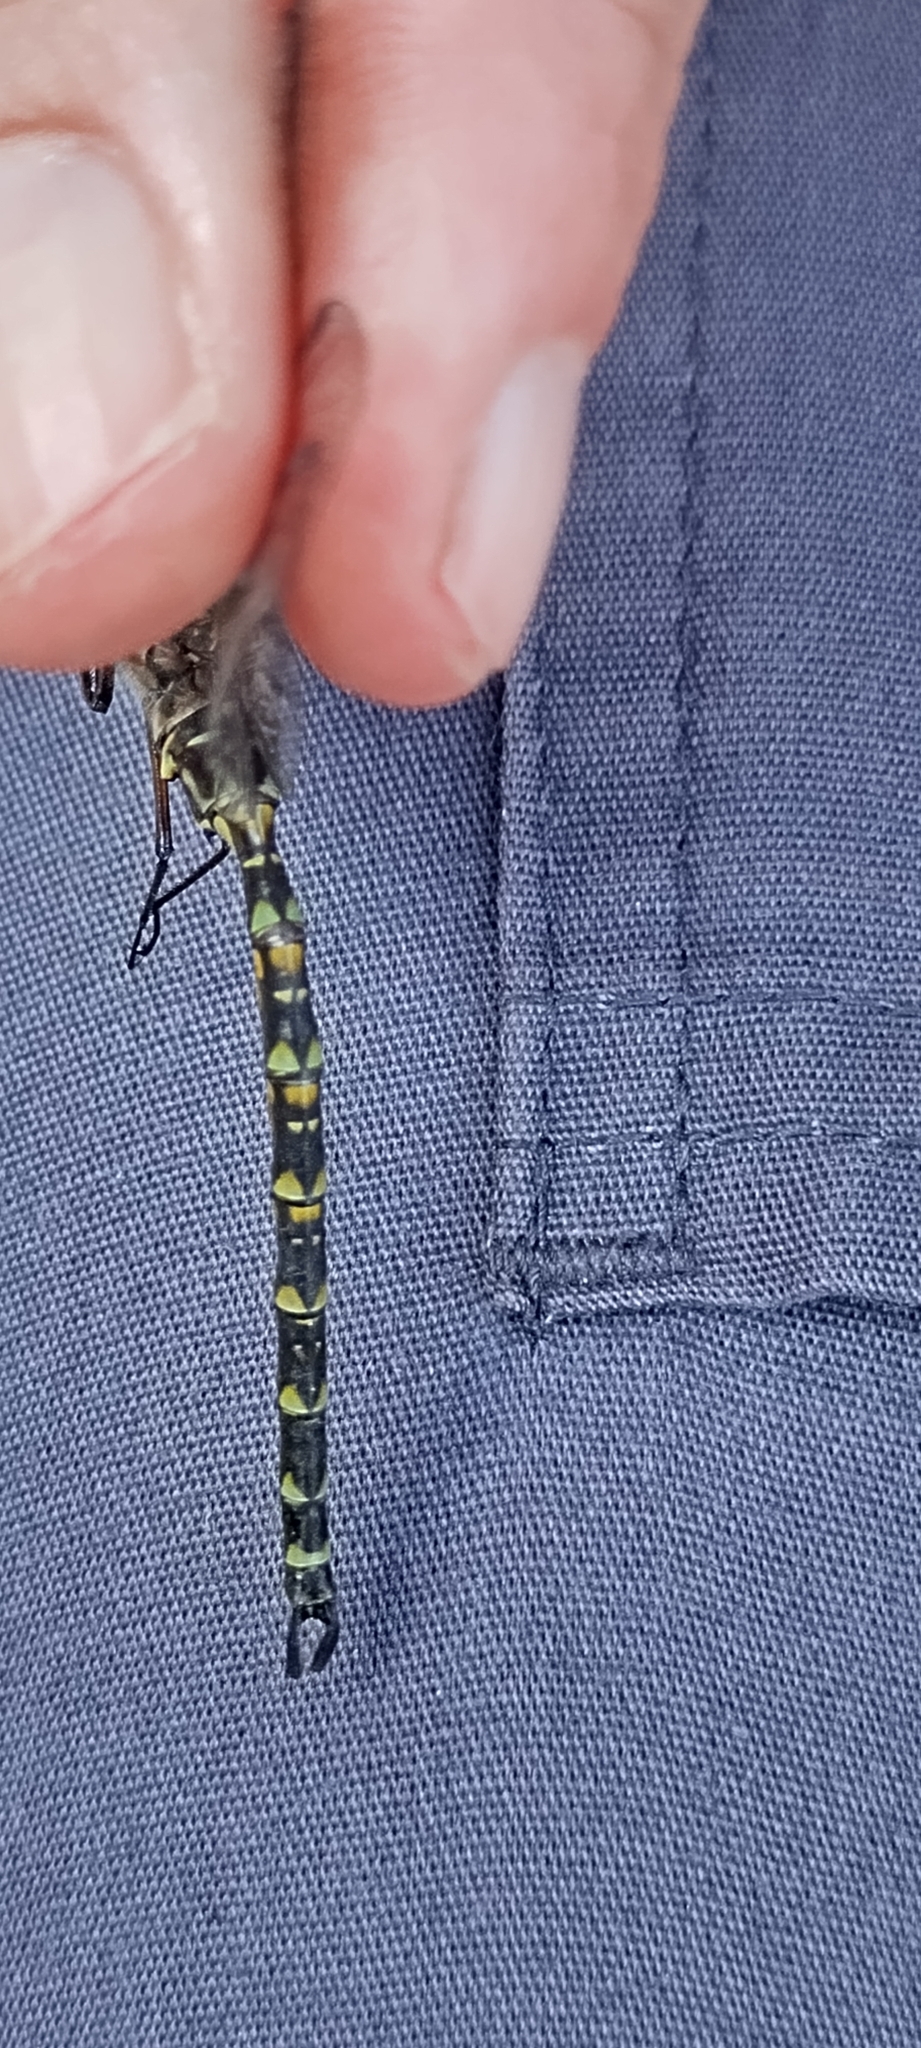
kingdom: Animalia
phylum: Arthropoda
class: Insecta
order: Odonata
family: Aeshnidae
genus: Gomphaeschna
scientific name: Gomphaeschna furcillata
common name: Harlequin darner
